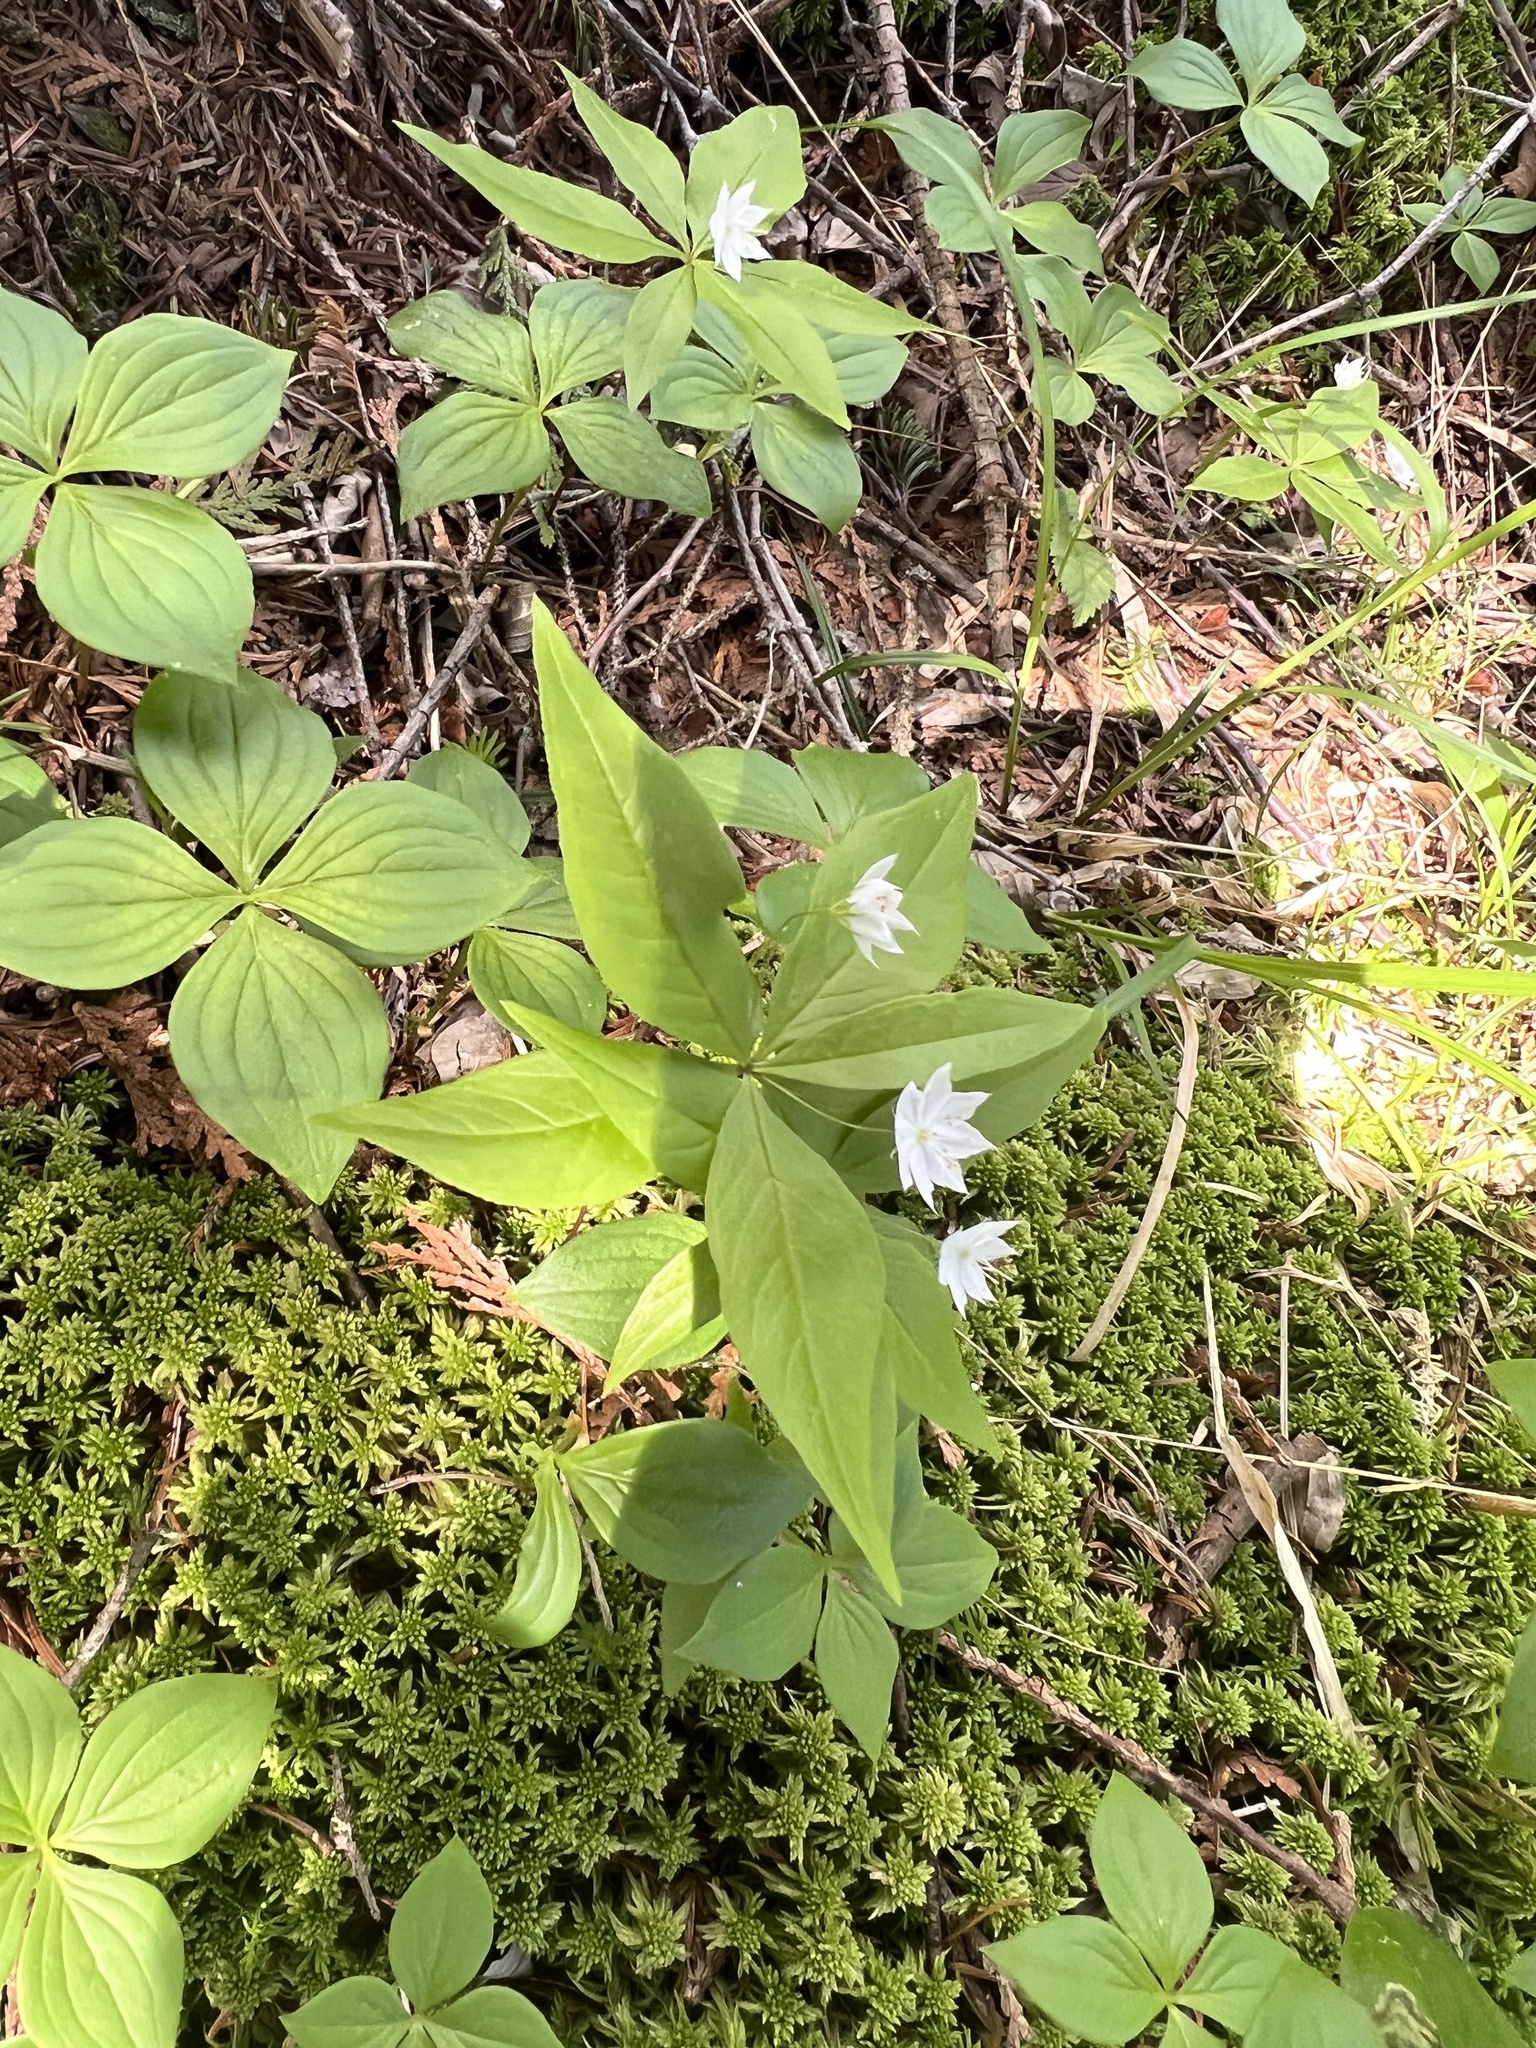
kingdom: Plantae
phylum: Tracheophyta
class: Magnoliopsida
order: Ericales
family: Primulaceae
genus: Lysimachia
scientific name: Lysimachia borealis
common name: American starflower
